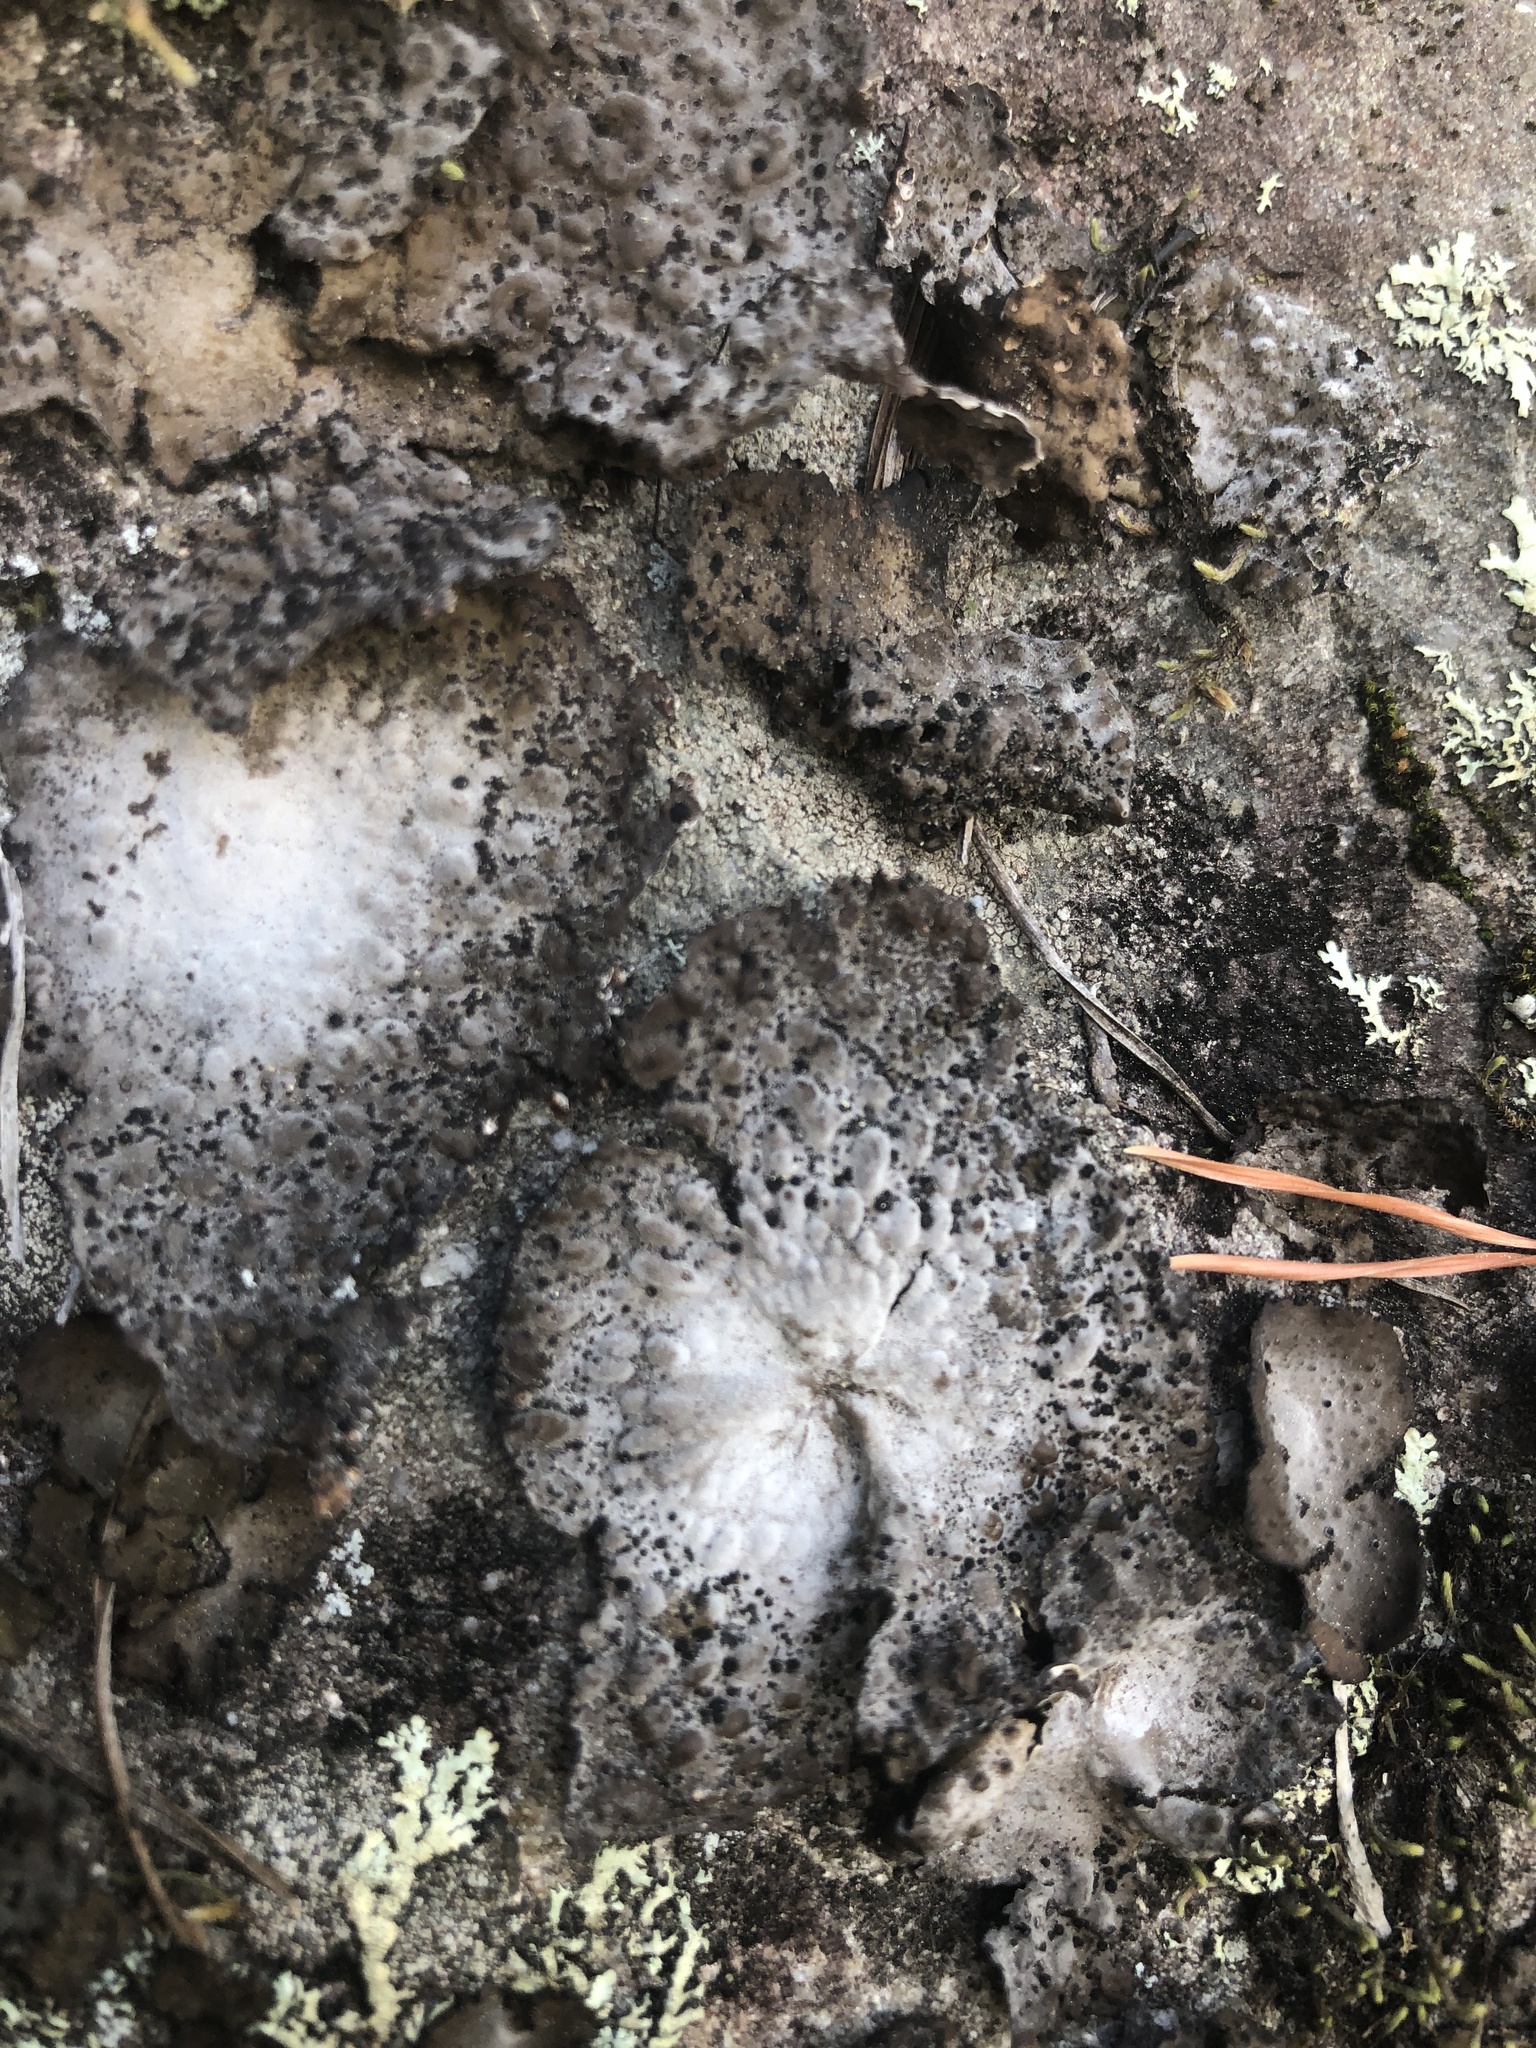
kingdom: Fungi
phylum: Ascomycota
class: Lecanoromycetes
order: Umbilicariales
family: Umbilicariaceae
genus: Lasallia
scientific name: Lasallia papulosa
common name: Common toadskin lichen
